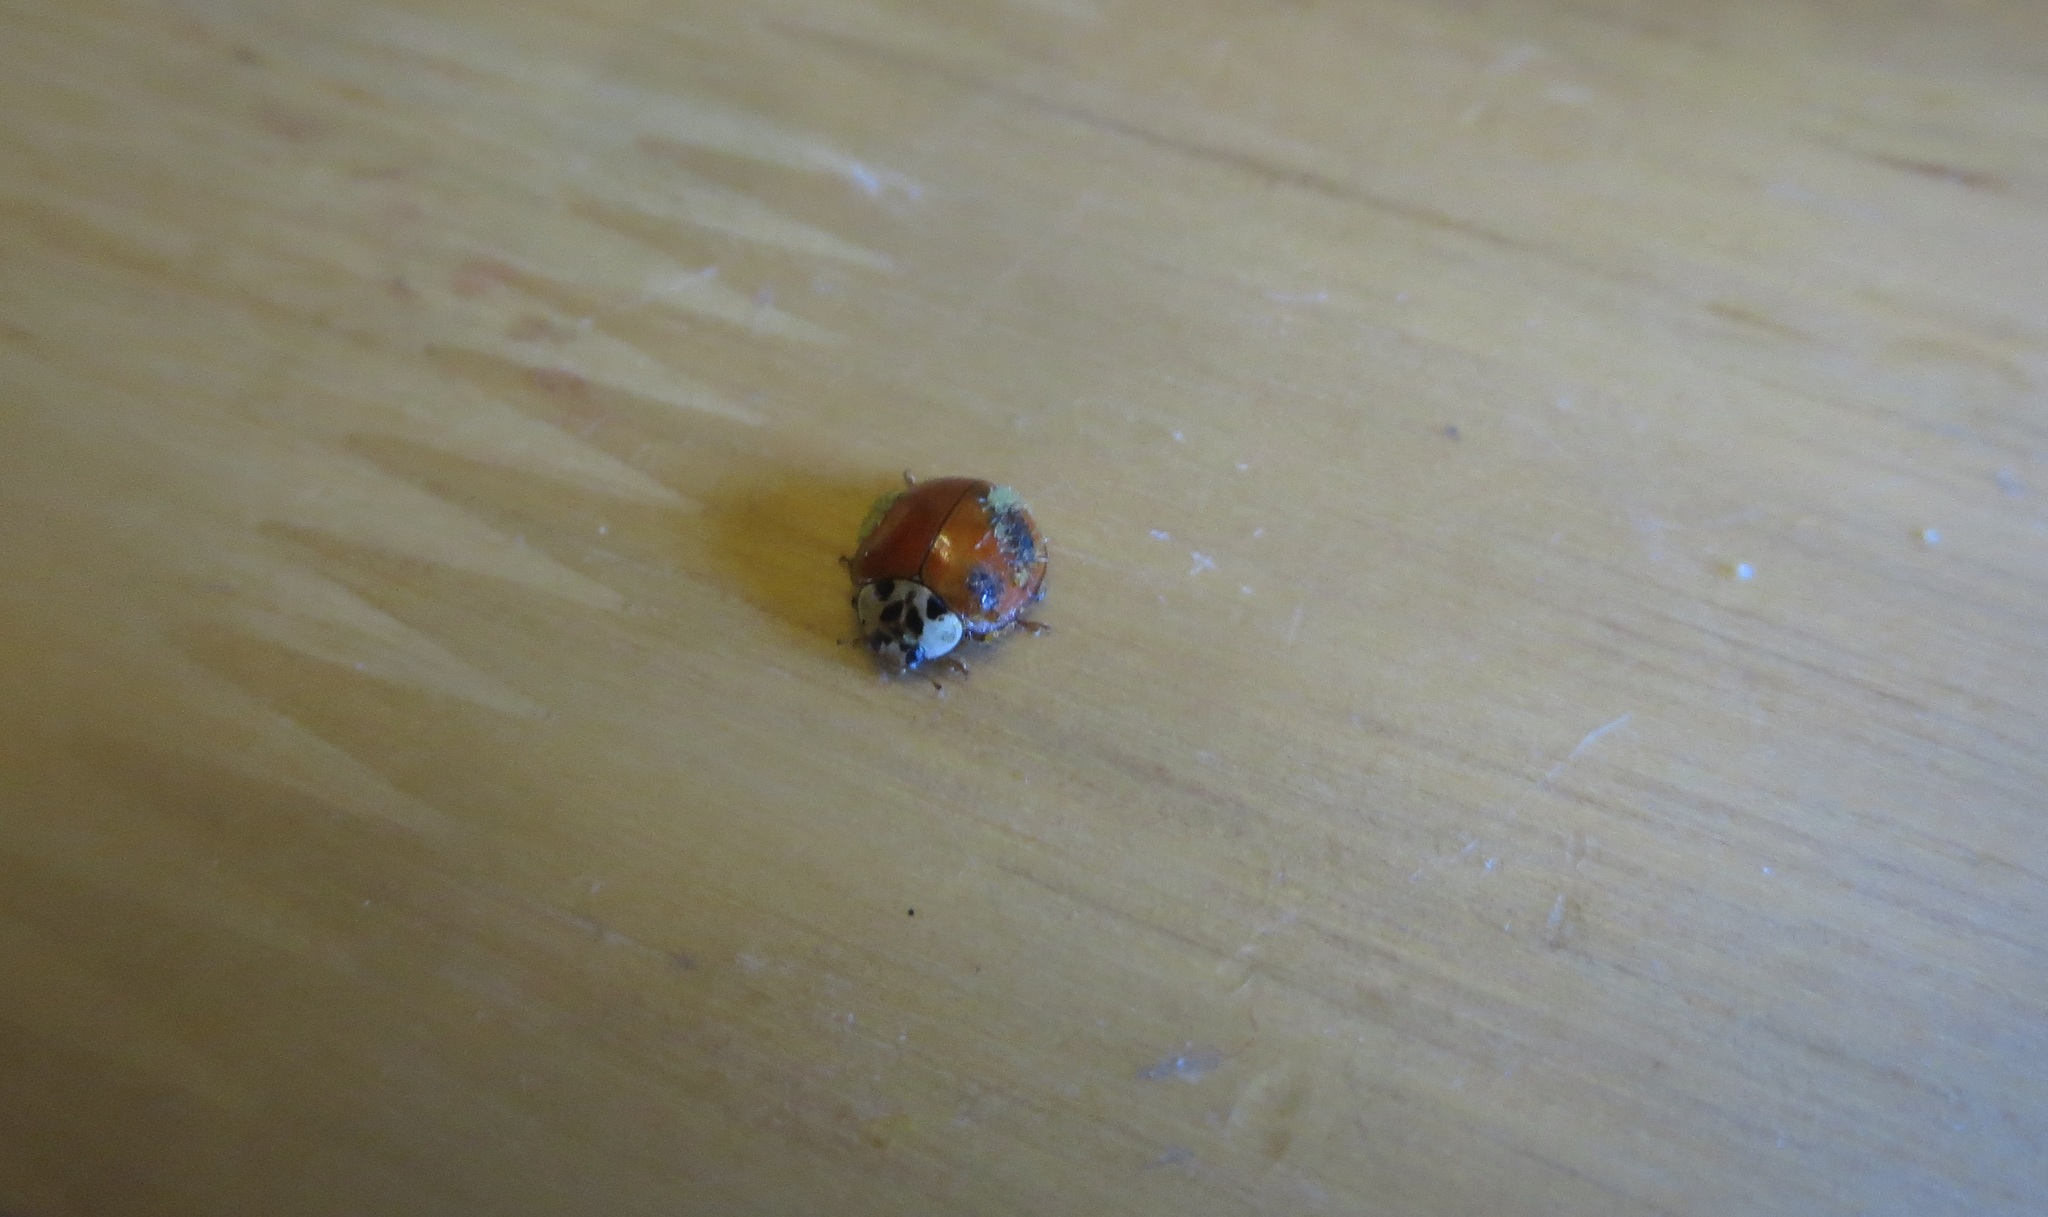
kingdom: Fungi
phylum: Ascomycota
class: Laboulbeniomycetes
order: Laboulbeniales
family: Laboulbeniaceae
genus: Hesperomyces
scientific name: Hesperomyces harmoniae
